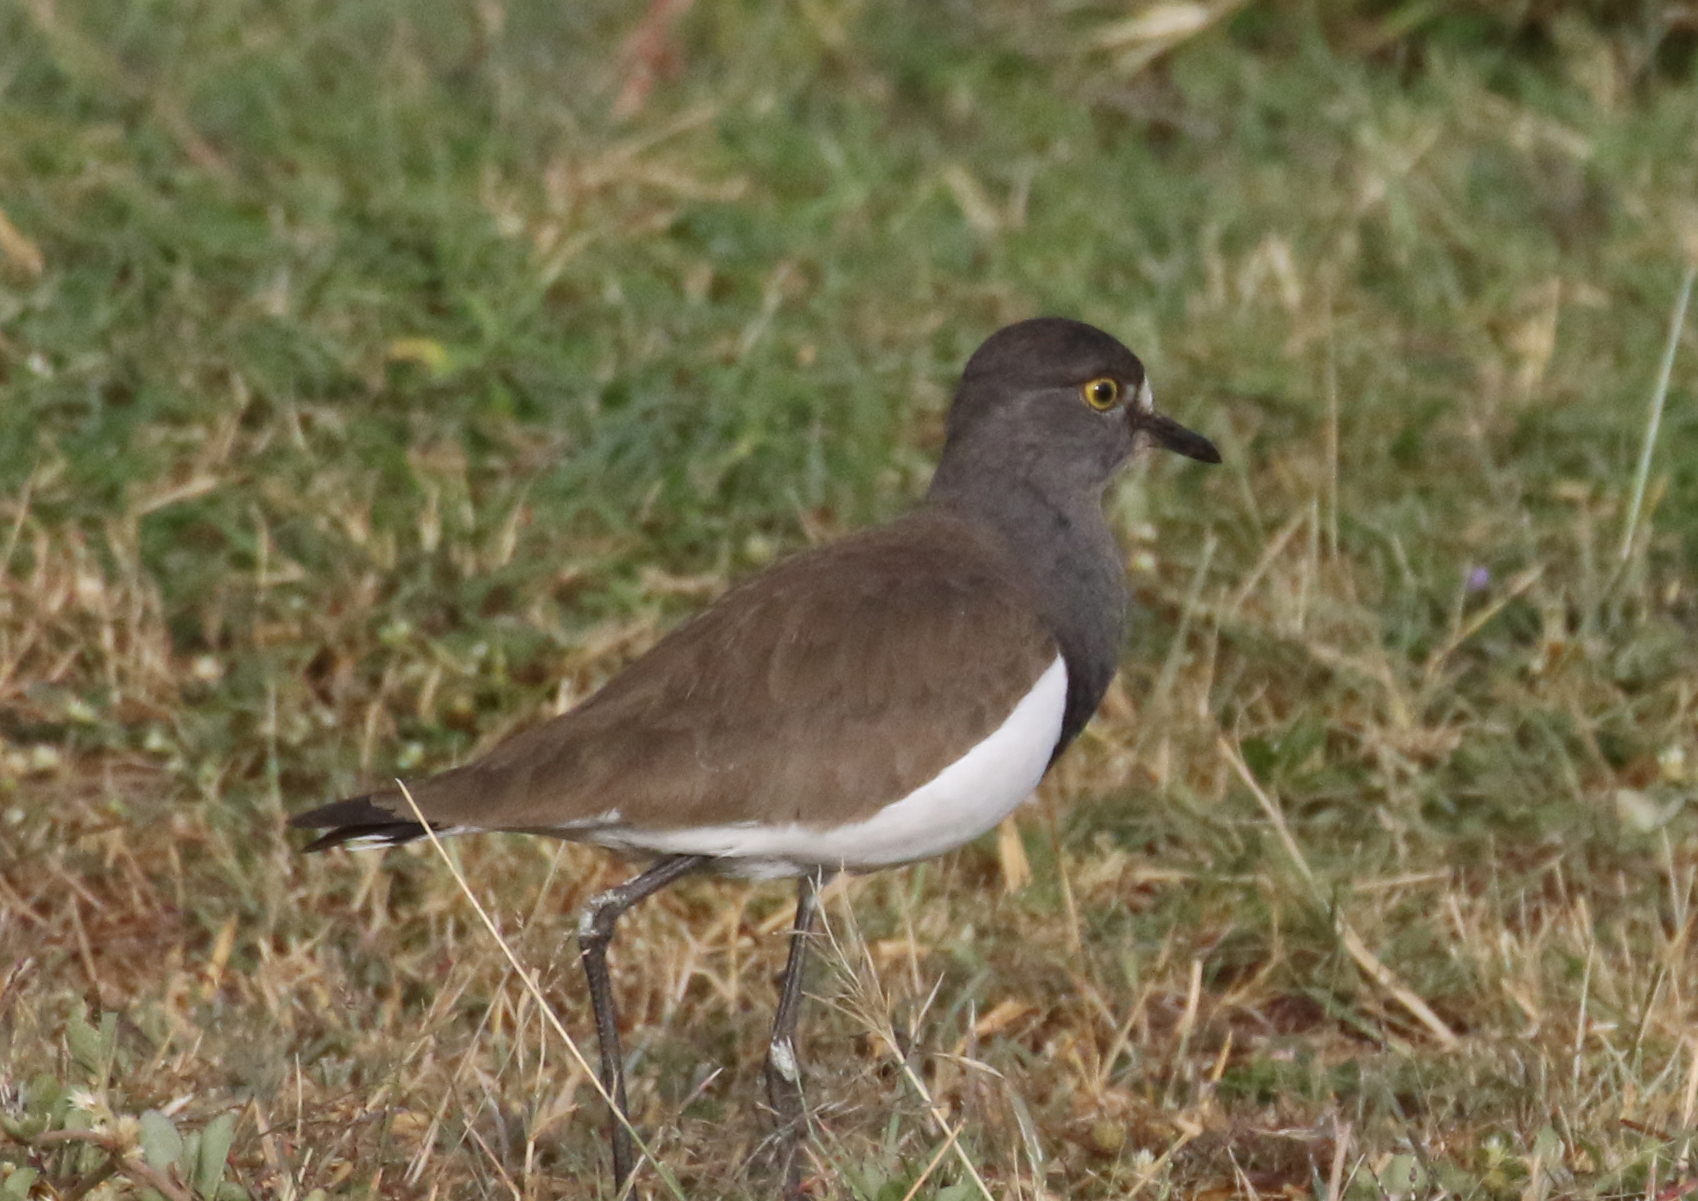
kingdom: Animalia
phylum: Chordata
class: Aves
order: Charadriiformes
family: Charadriidae
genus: Vanellus
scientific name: Vanellus lugubris
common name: Senegal lapwing
